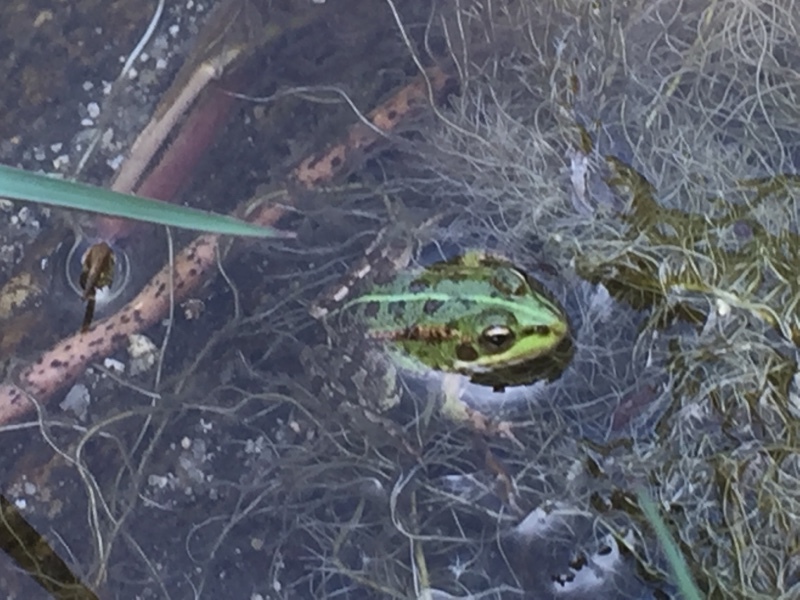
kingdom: Animalia
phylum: Chordata
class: Amphibia
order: Anura
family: Ranidae
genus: Pelophylax
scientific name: Pelophylax perezi
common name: Perez's frog
